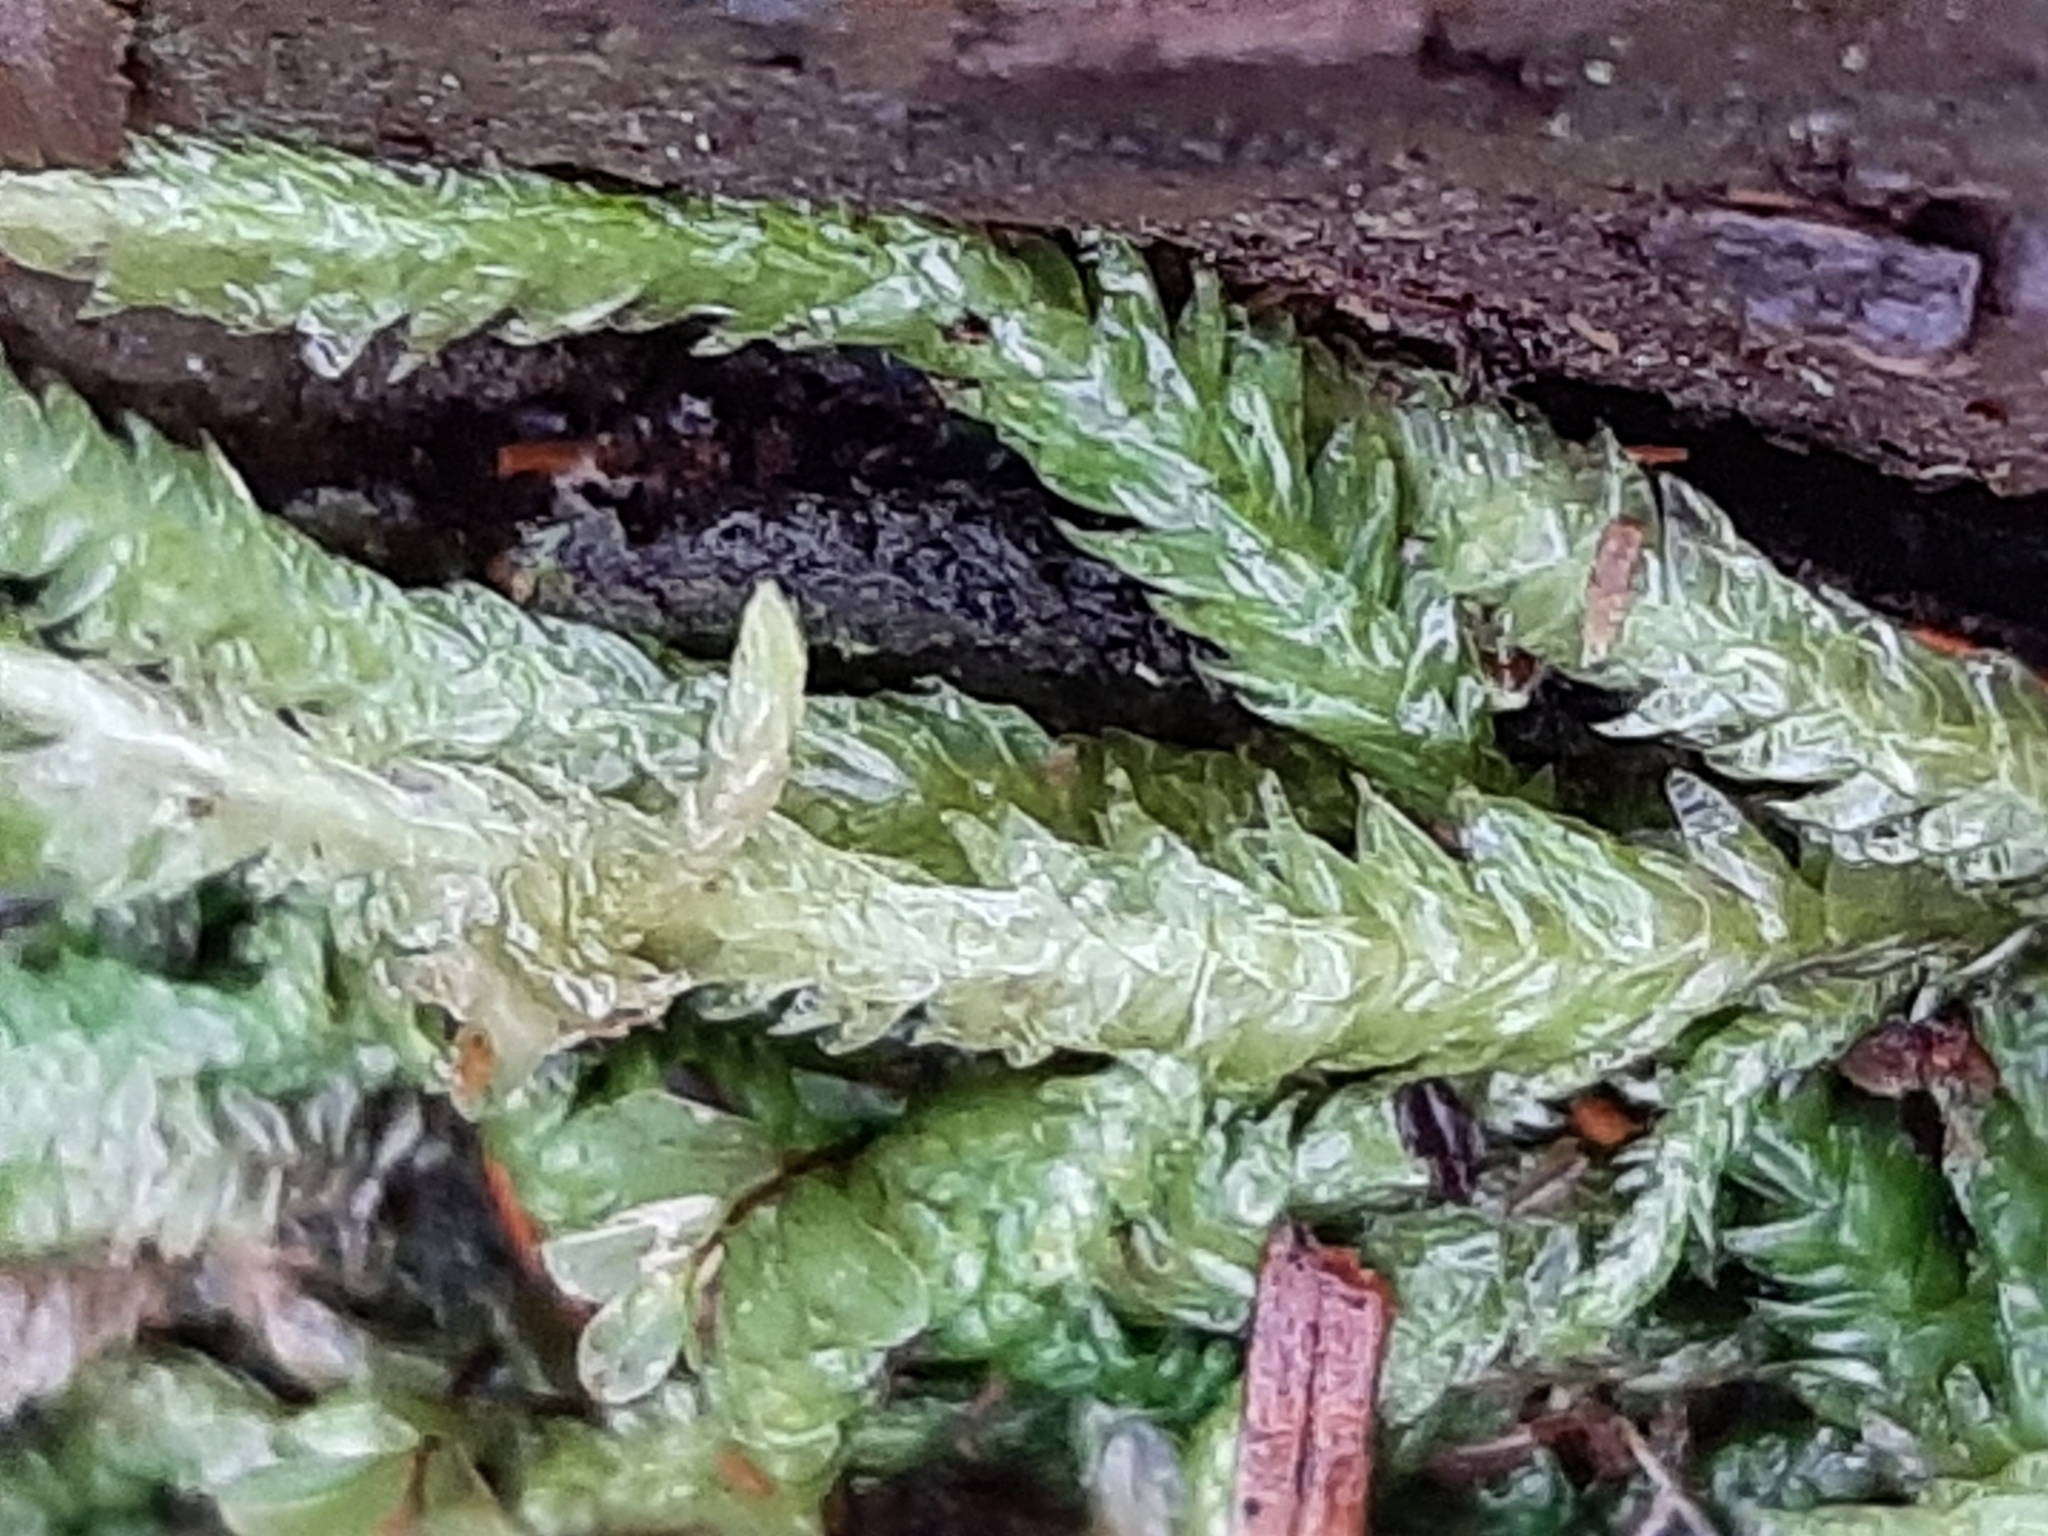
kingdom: Plantae
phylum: Bryophyta
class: Bryopsida
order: Hypnales
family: Plagiotheciaceae
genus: Plagiothecium
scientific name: Plagiothecium undulatum
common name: Waved silk-moss
